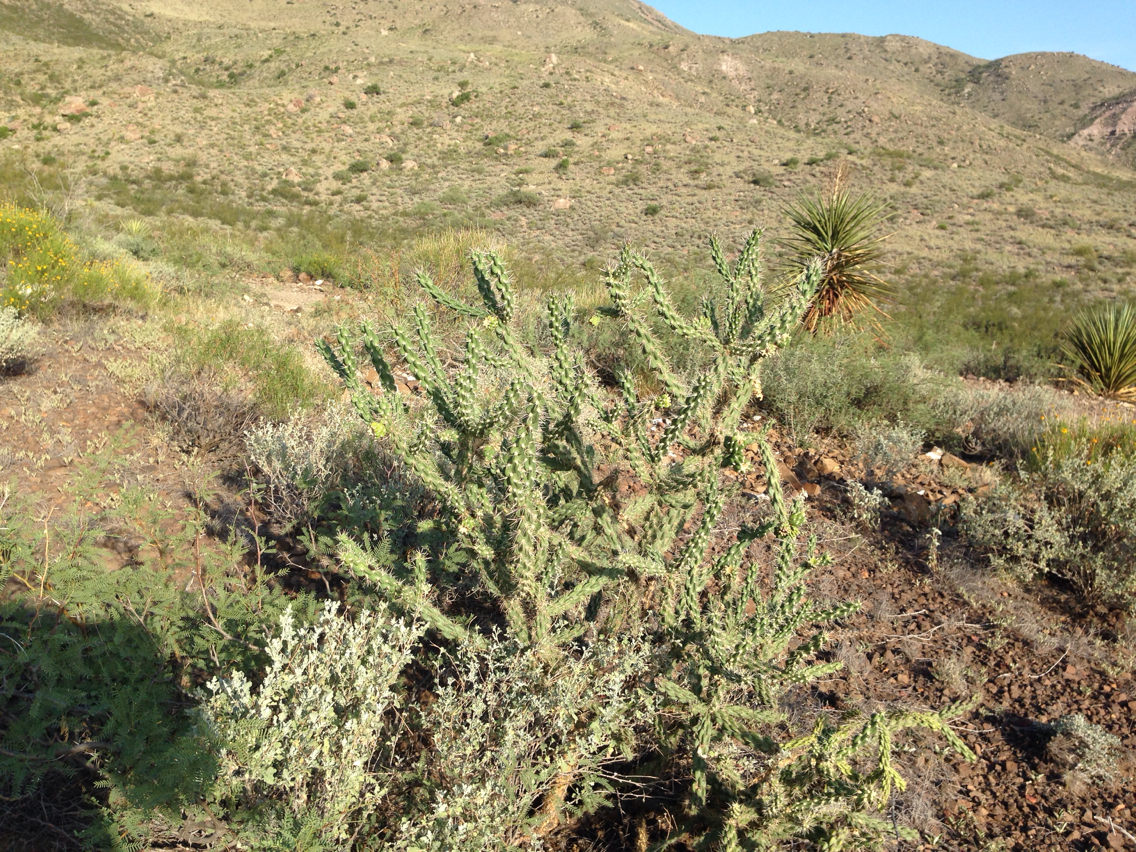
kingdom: Plantae
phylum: Tracheophyta
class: Magnoliopsida
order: Caryophyllales
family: Cactaceae
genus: Cylindropuntia
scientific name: Cylindropuntia imbricata
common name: Candelabrum cactus
